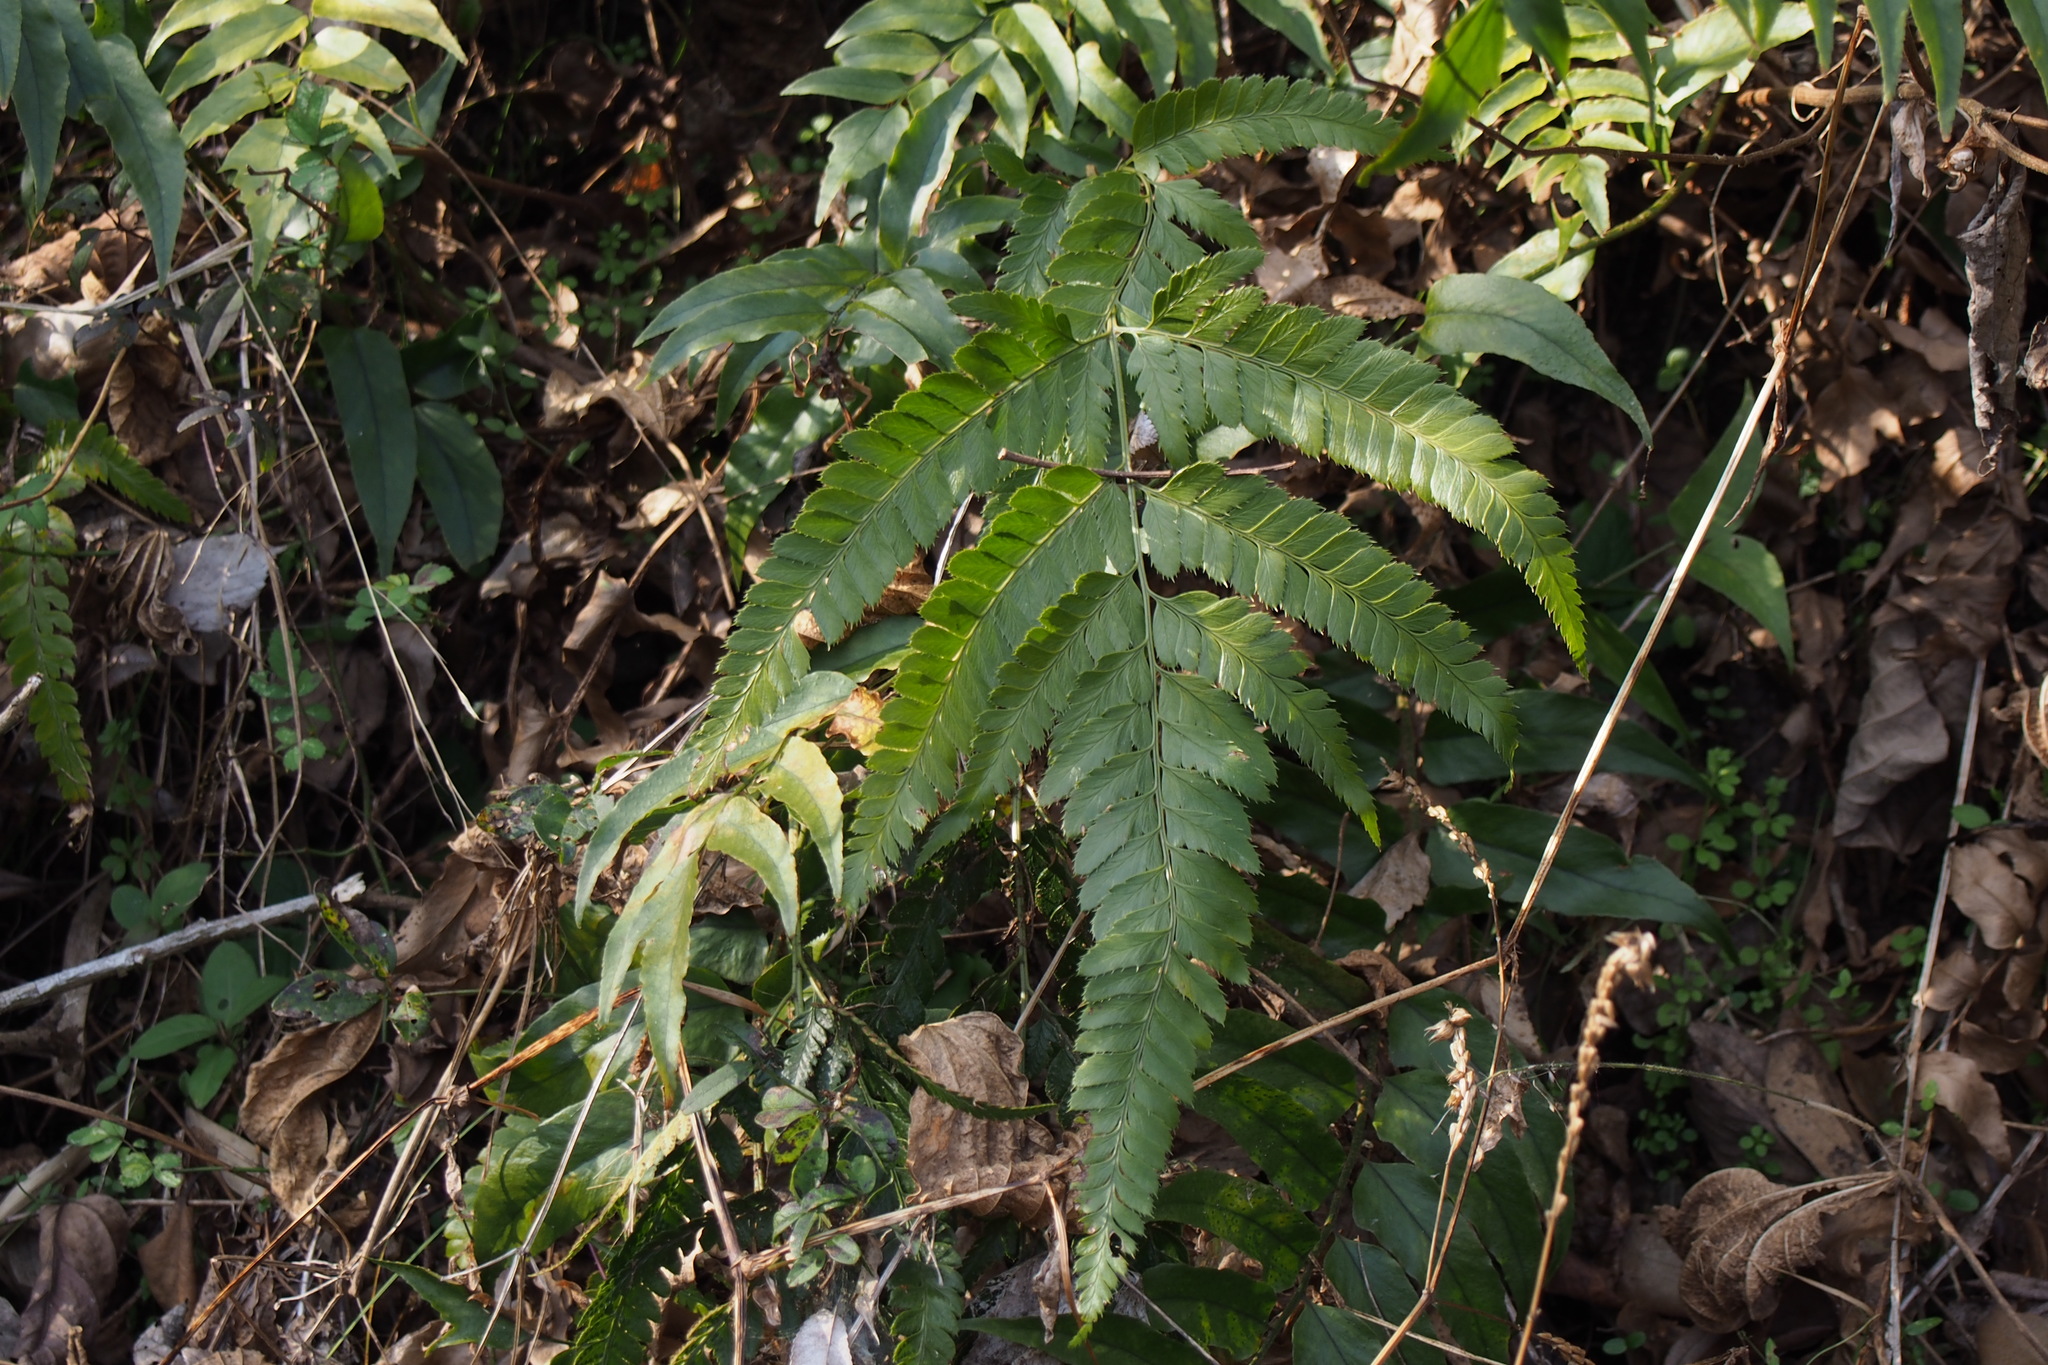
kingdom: Plantae
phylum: Tracheophyta
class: Polypodiopsida
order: Polypodiales
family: Dryopteridaceae
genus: Arachniodes
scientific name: Arachniodes simplicior
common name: Simpler hollyfern
